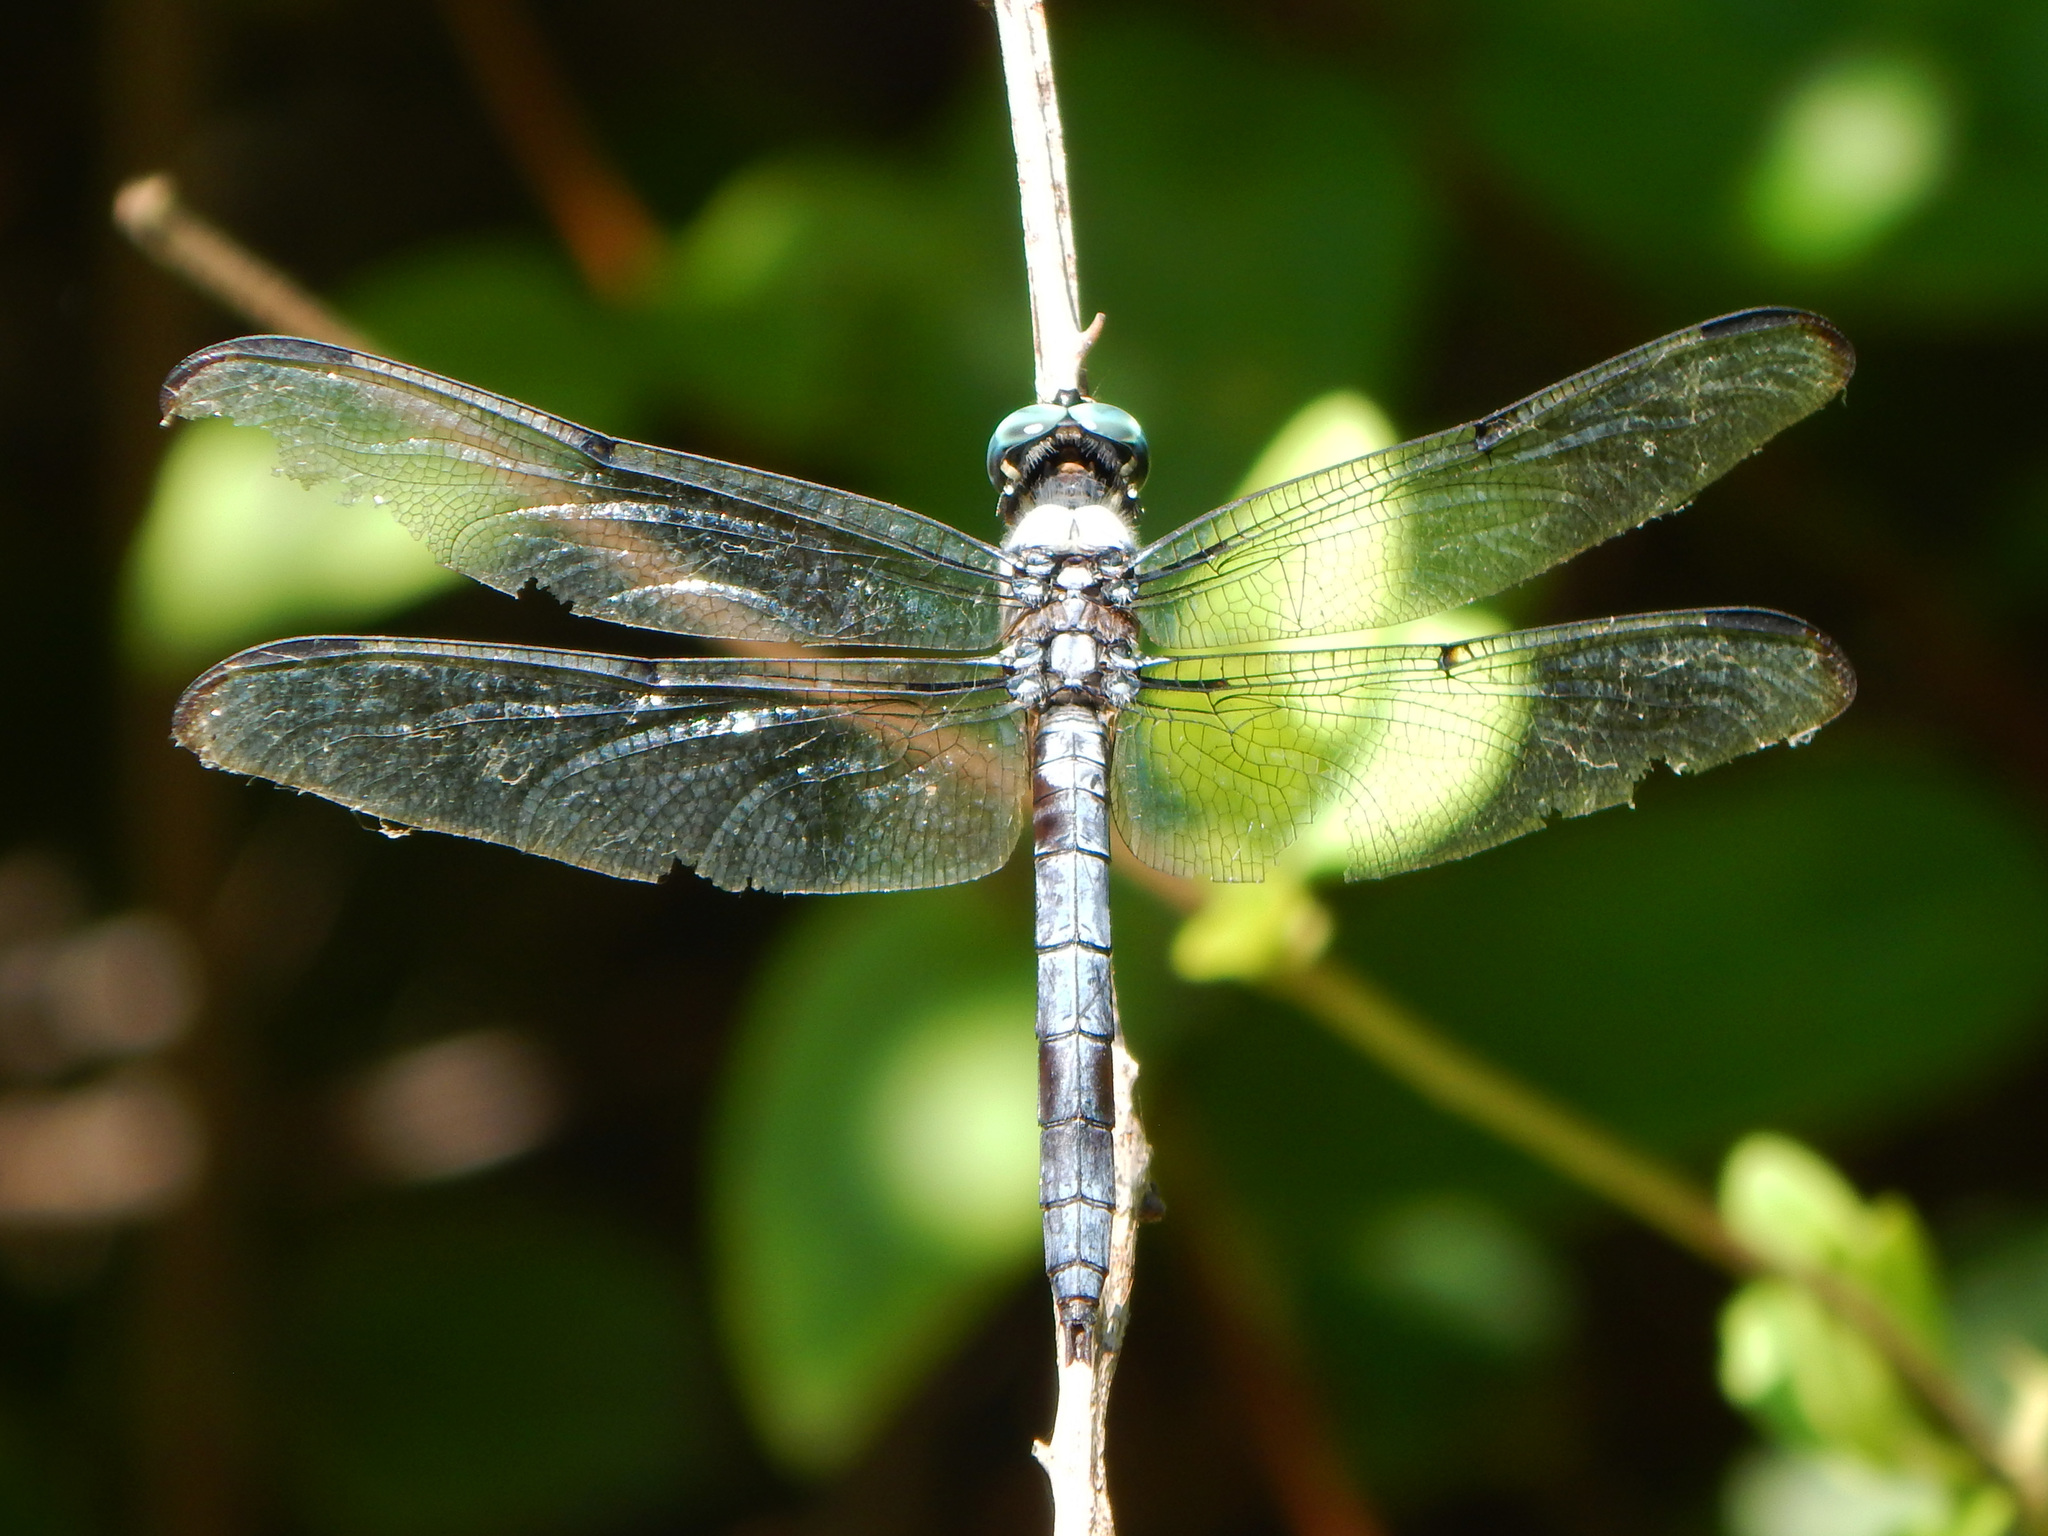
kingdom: Animalia
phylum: Arthropoda
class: Insecta
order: Odonata
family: Libellulidae
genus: Libellula
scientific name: Libellula vibrans
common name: Great blue skimmer
